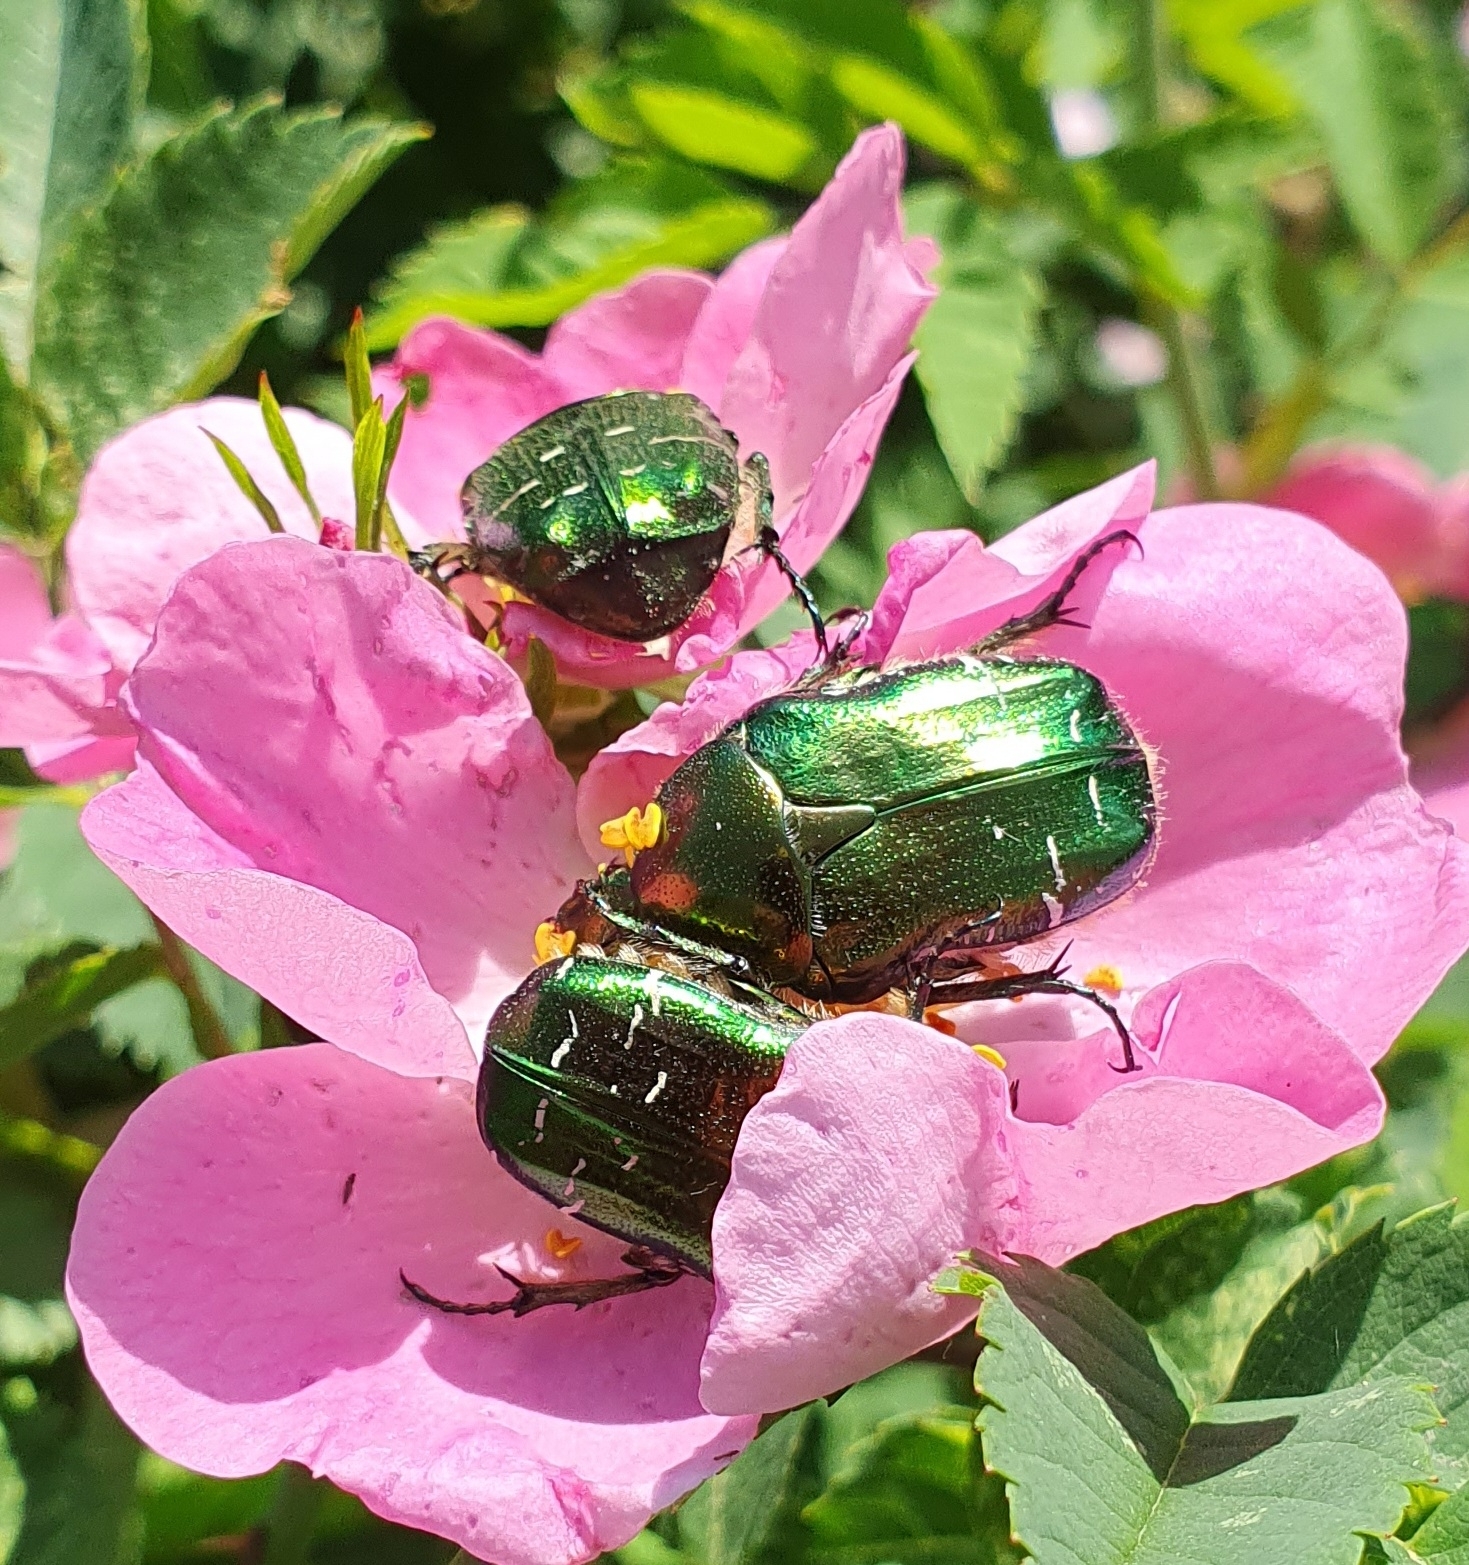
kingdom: Animalia
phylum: Arthropoda
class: Insecta
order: Coleoptera
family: Scarabaeidae
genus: Cetonia
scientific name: Cetonia aurata
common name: Rose chafer
